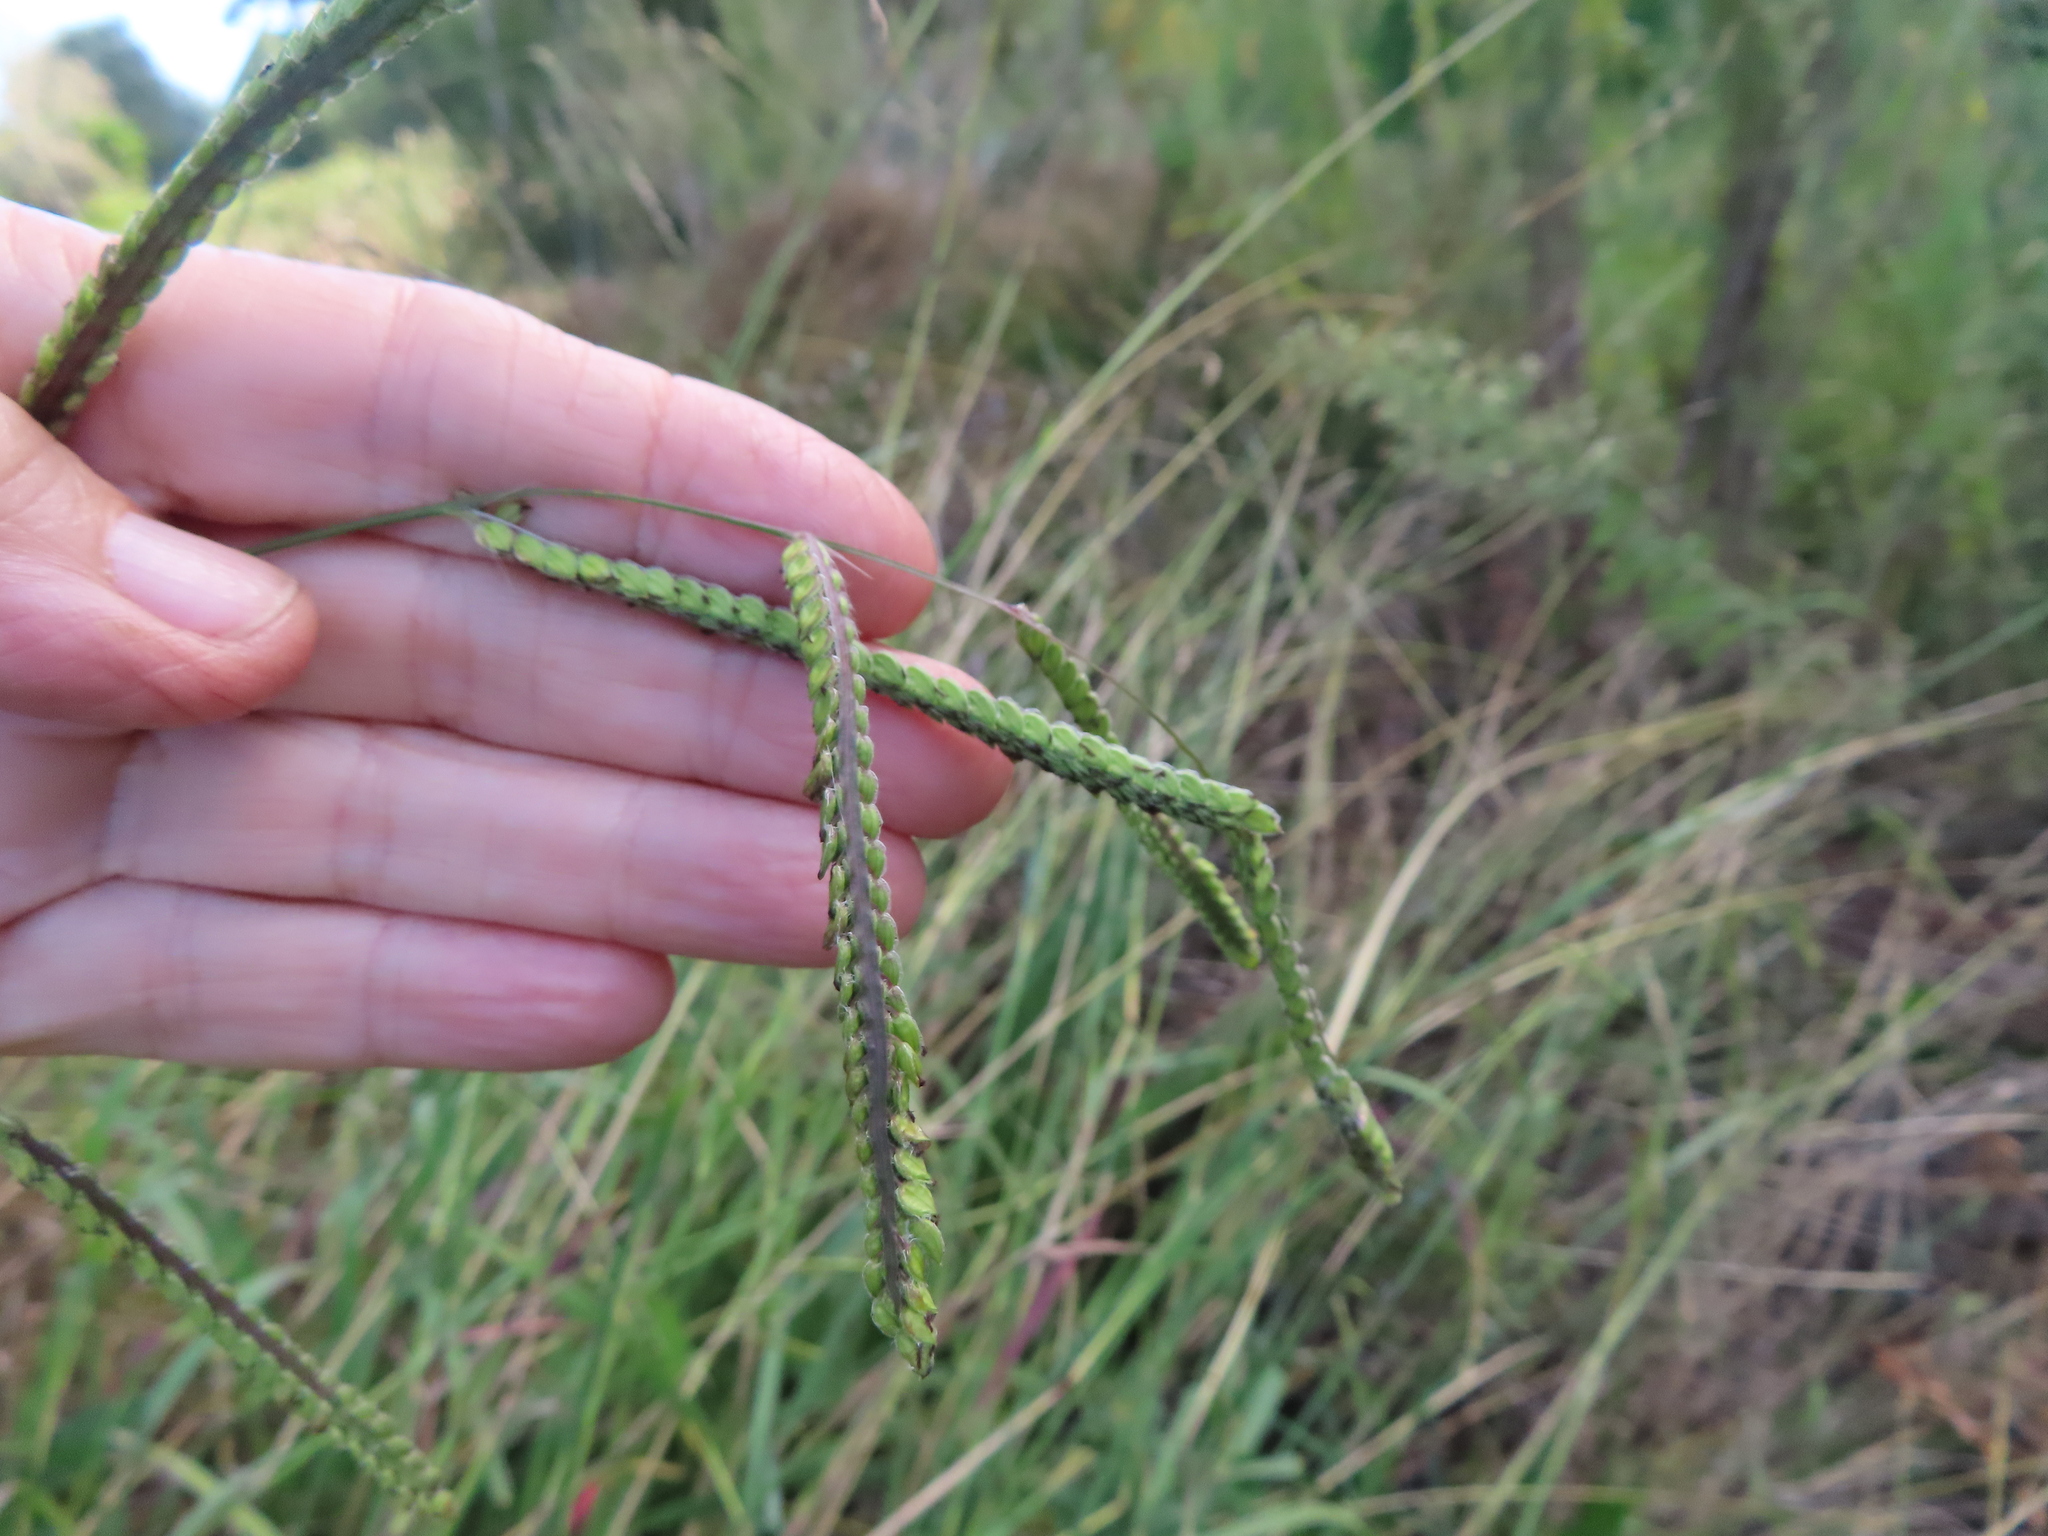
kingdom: Plantae
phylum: Tracheophyta
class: Liliopsida
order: Poales
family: Poaceae
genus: Paspalum
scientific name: Paspalum dilatatum
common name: Dallisgrass
